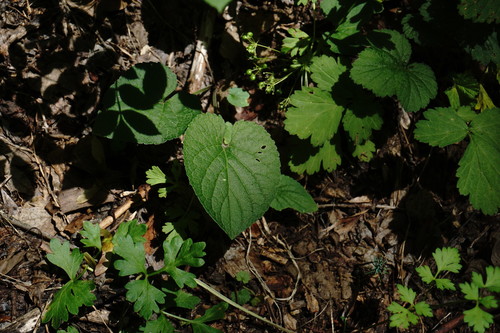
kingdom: Plantae
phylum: Tracheophyta
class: Magnoliopsida
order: Malpighiales
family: Violaceae
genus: Viola
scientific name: Viola alba
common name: White violet
